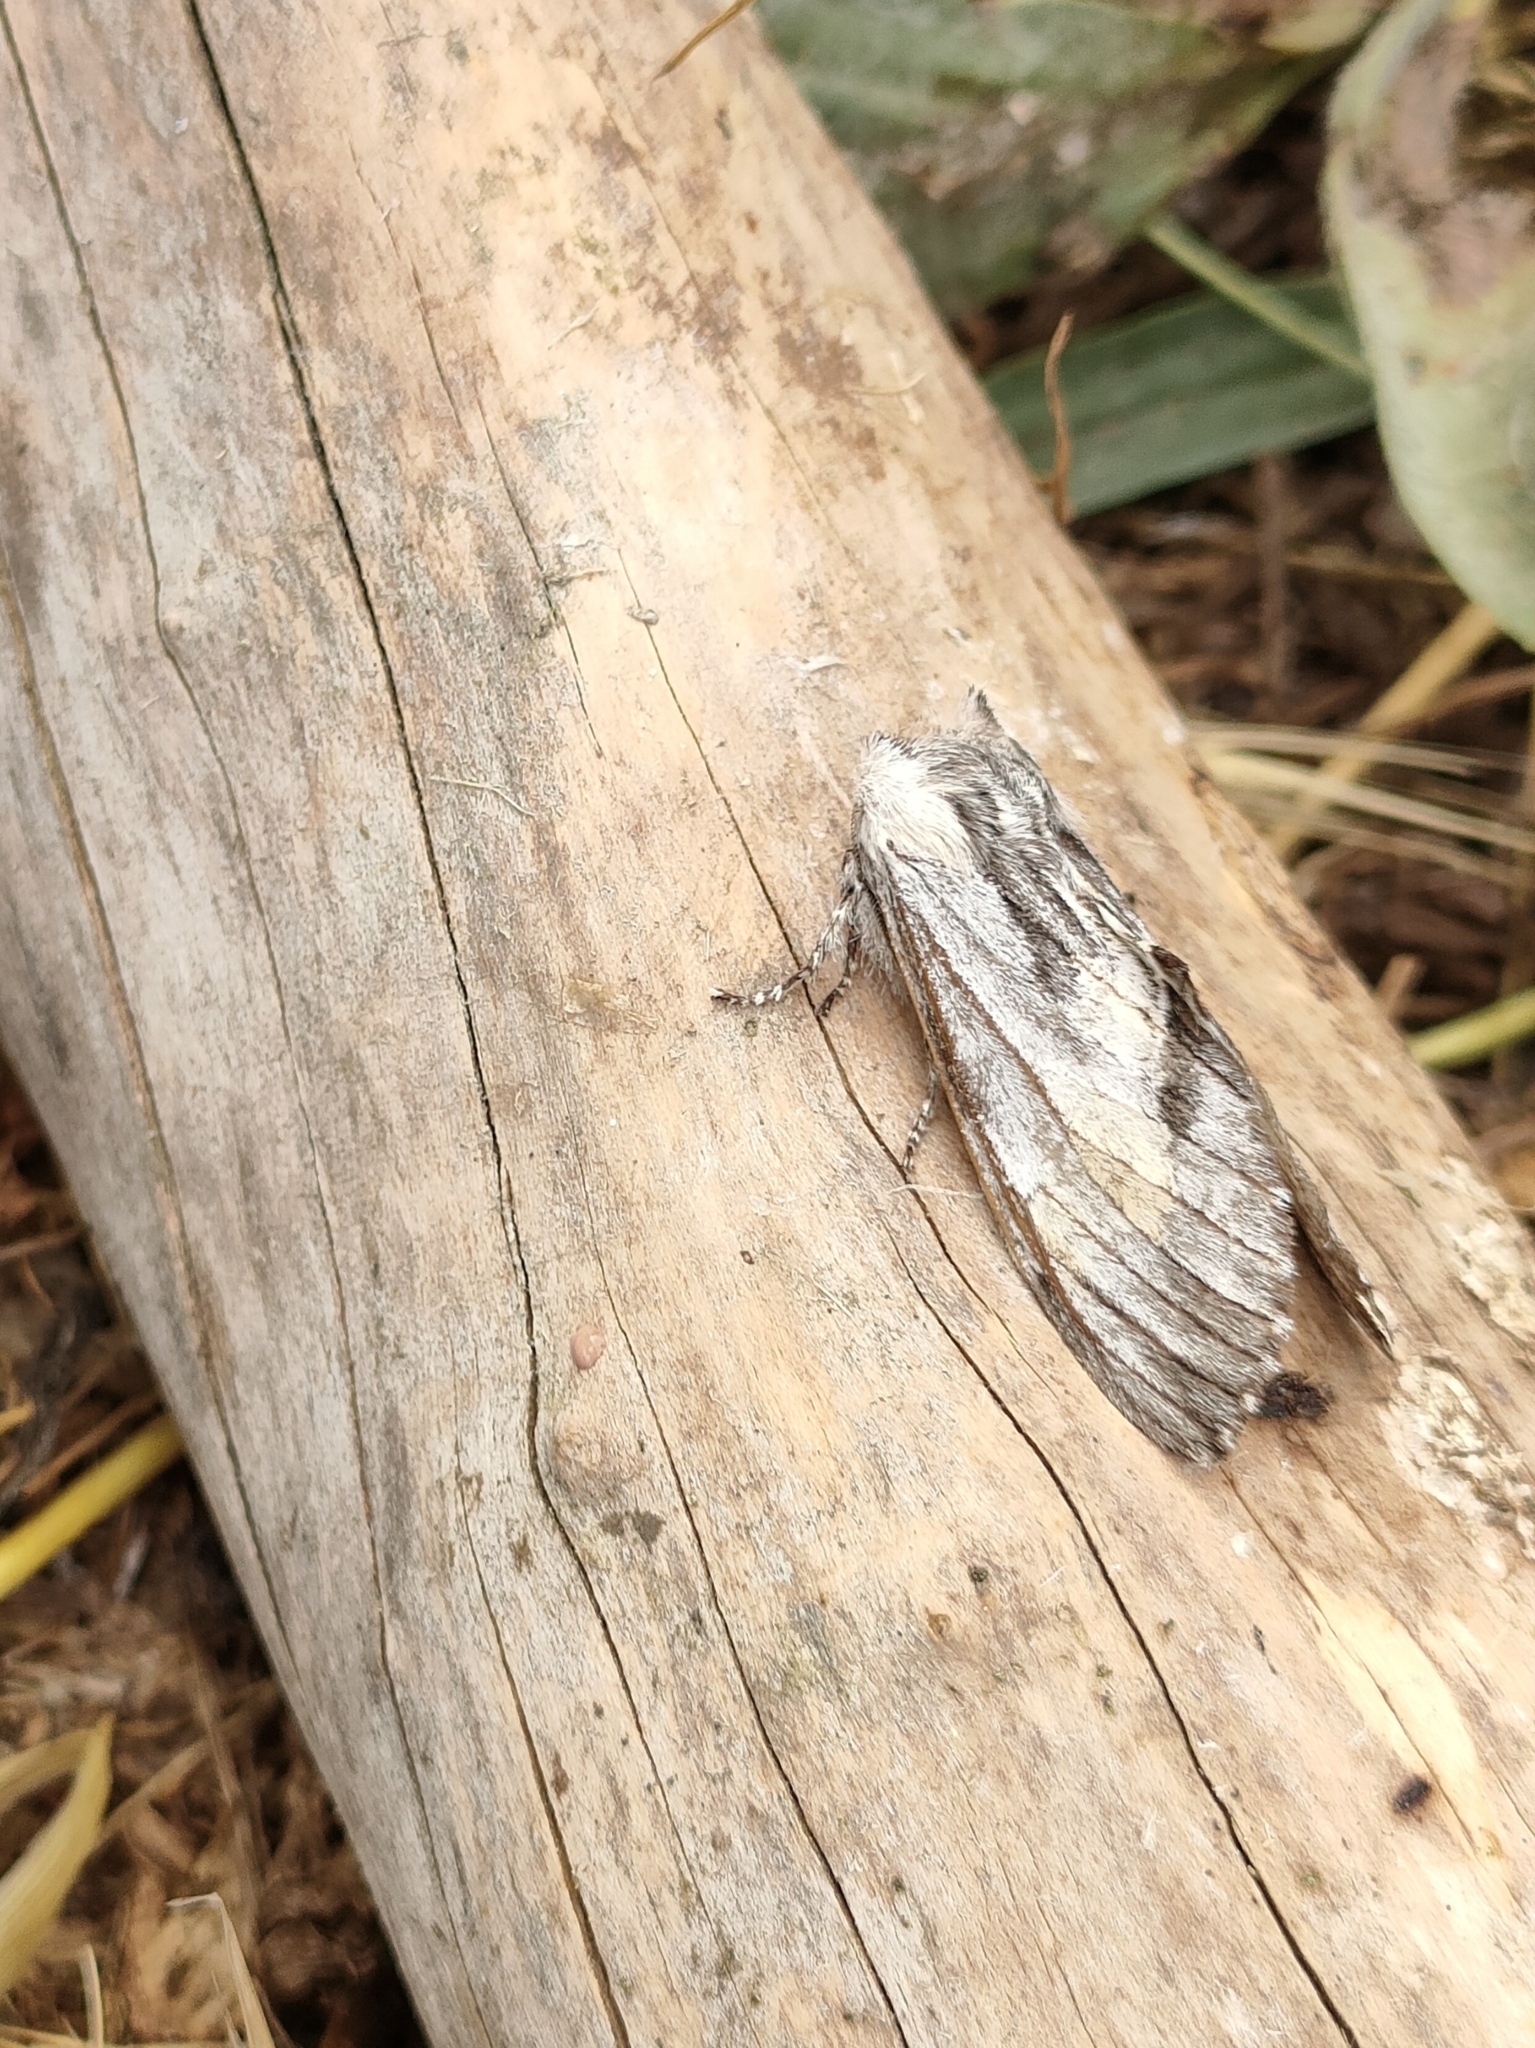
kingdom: Animalia
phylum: Arthropoda
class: Insecta
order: Lepidoptera
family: Notodontidae
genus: Harpyia
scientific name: Harpyia milhauseri
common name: Tawny prominent
